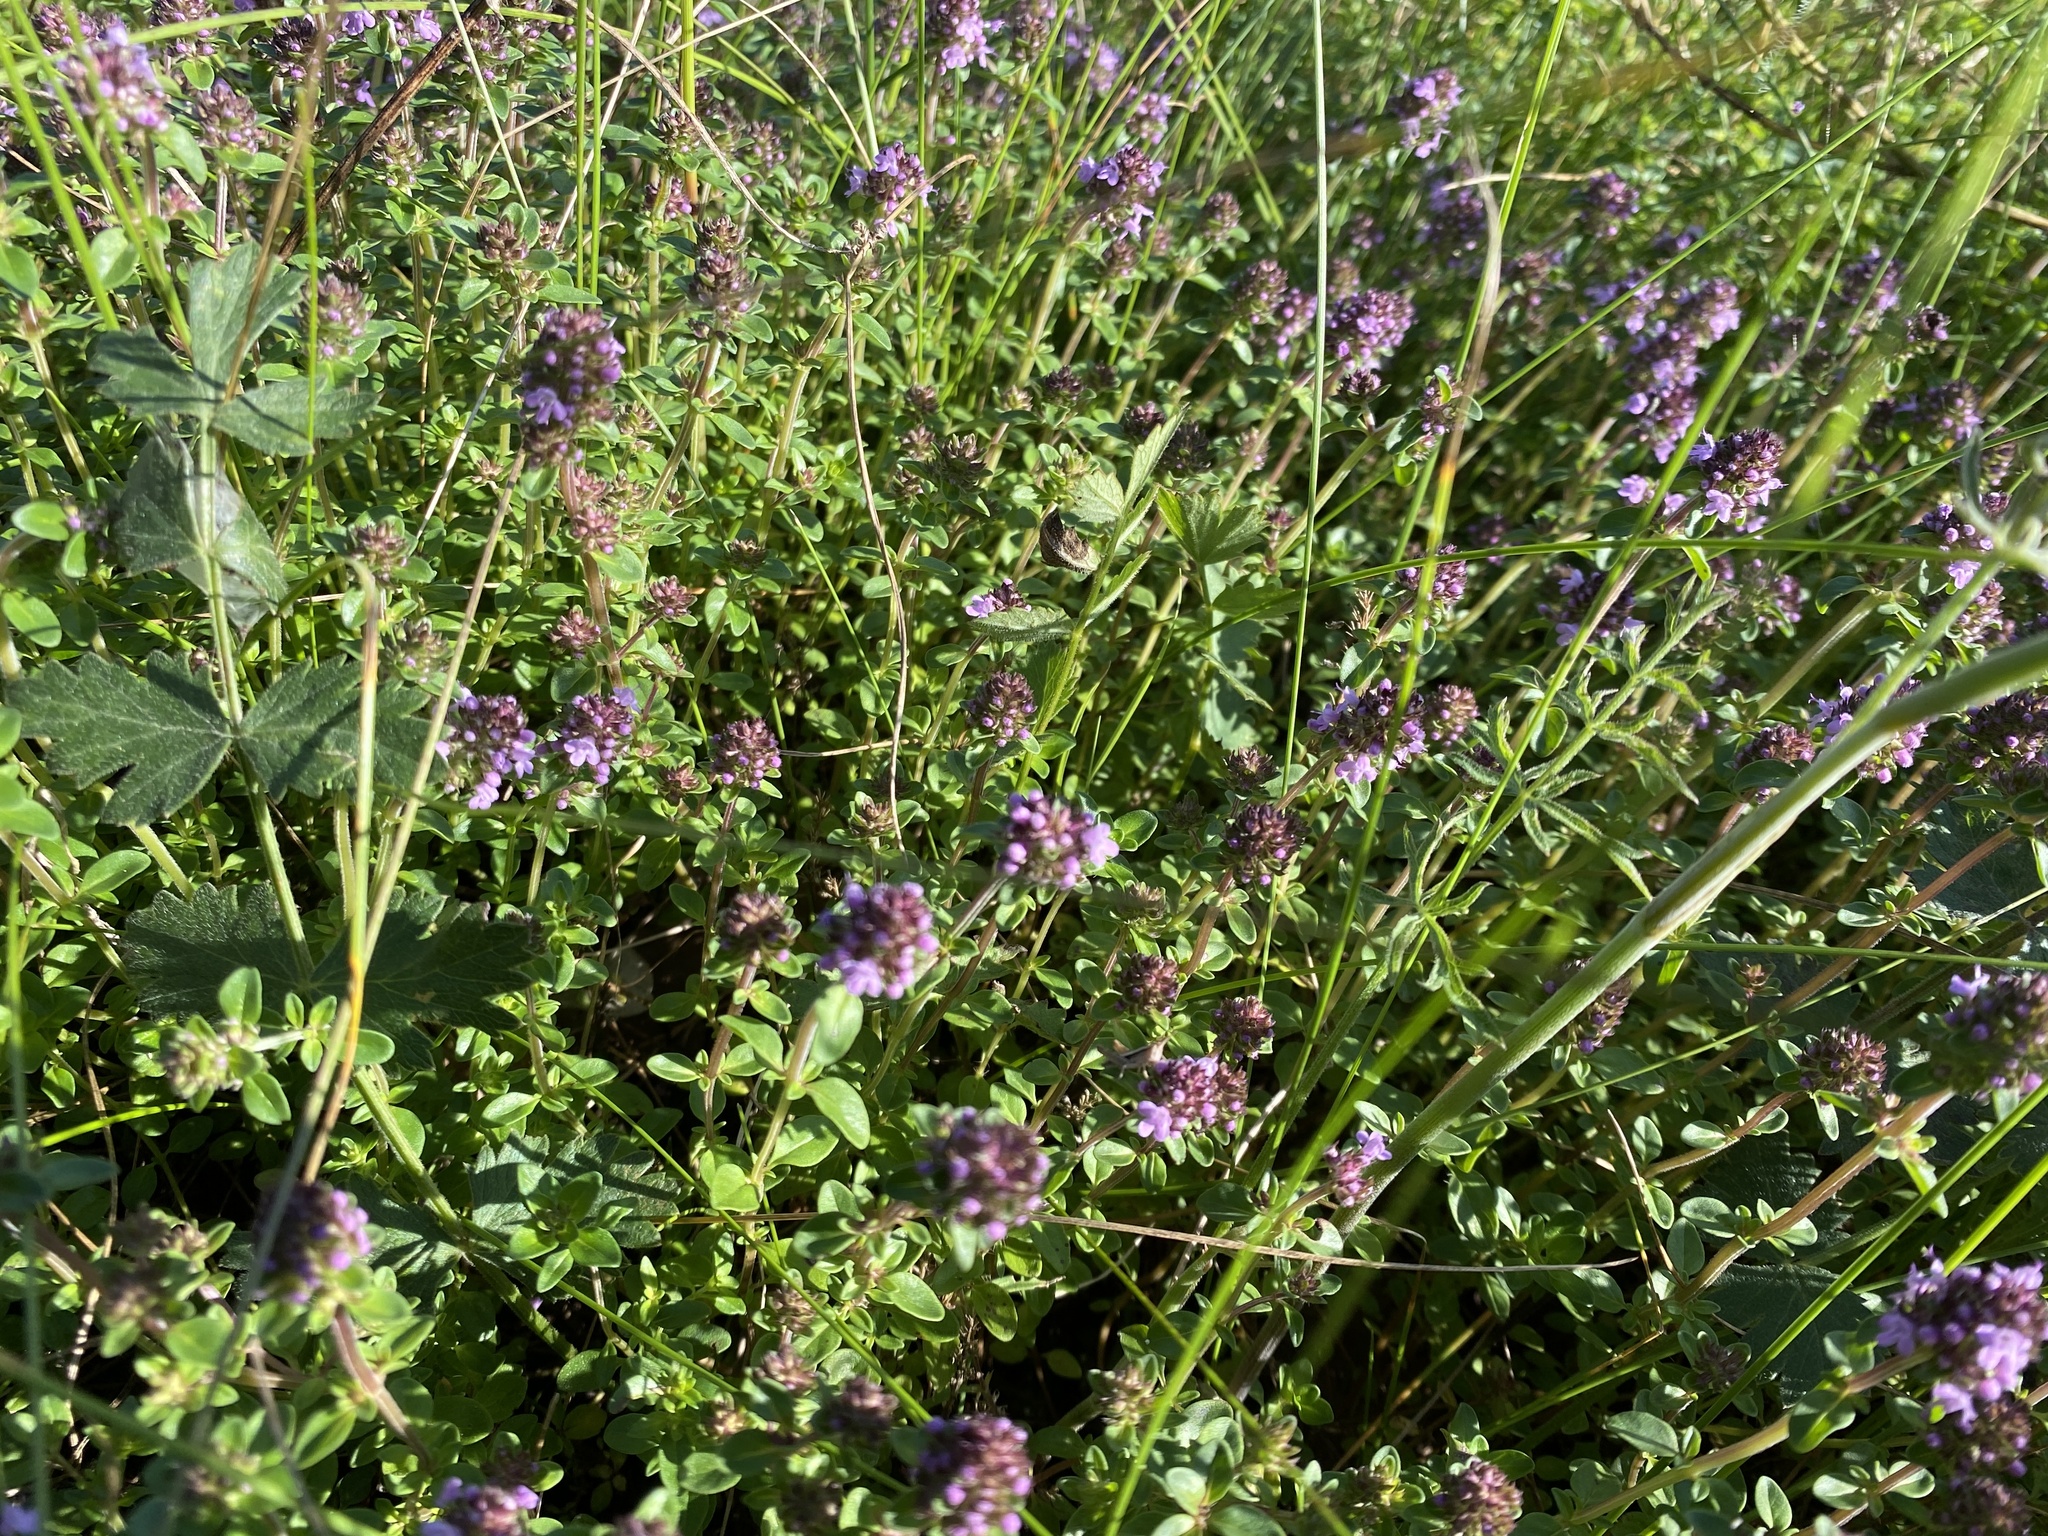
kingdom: Plantae
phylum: Tracheophyta
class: Magnoliopsida
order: Lamiales
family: Lamiaceae
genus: Thymus
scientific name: Thymus pulegioides
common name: Large thyme
